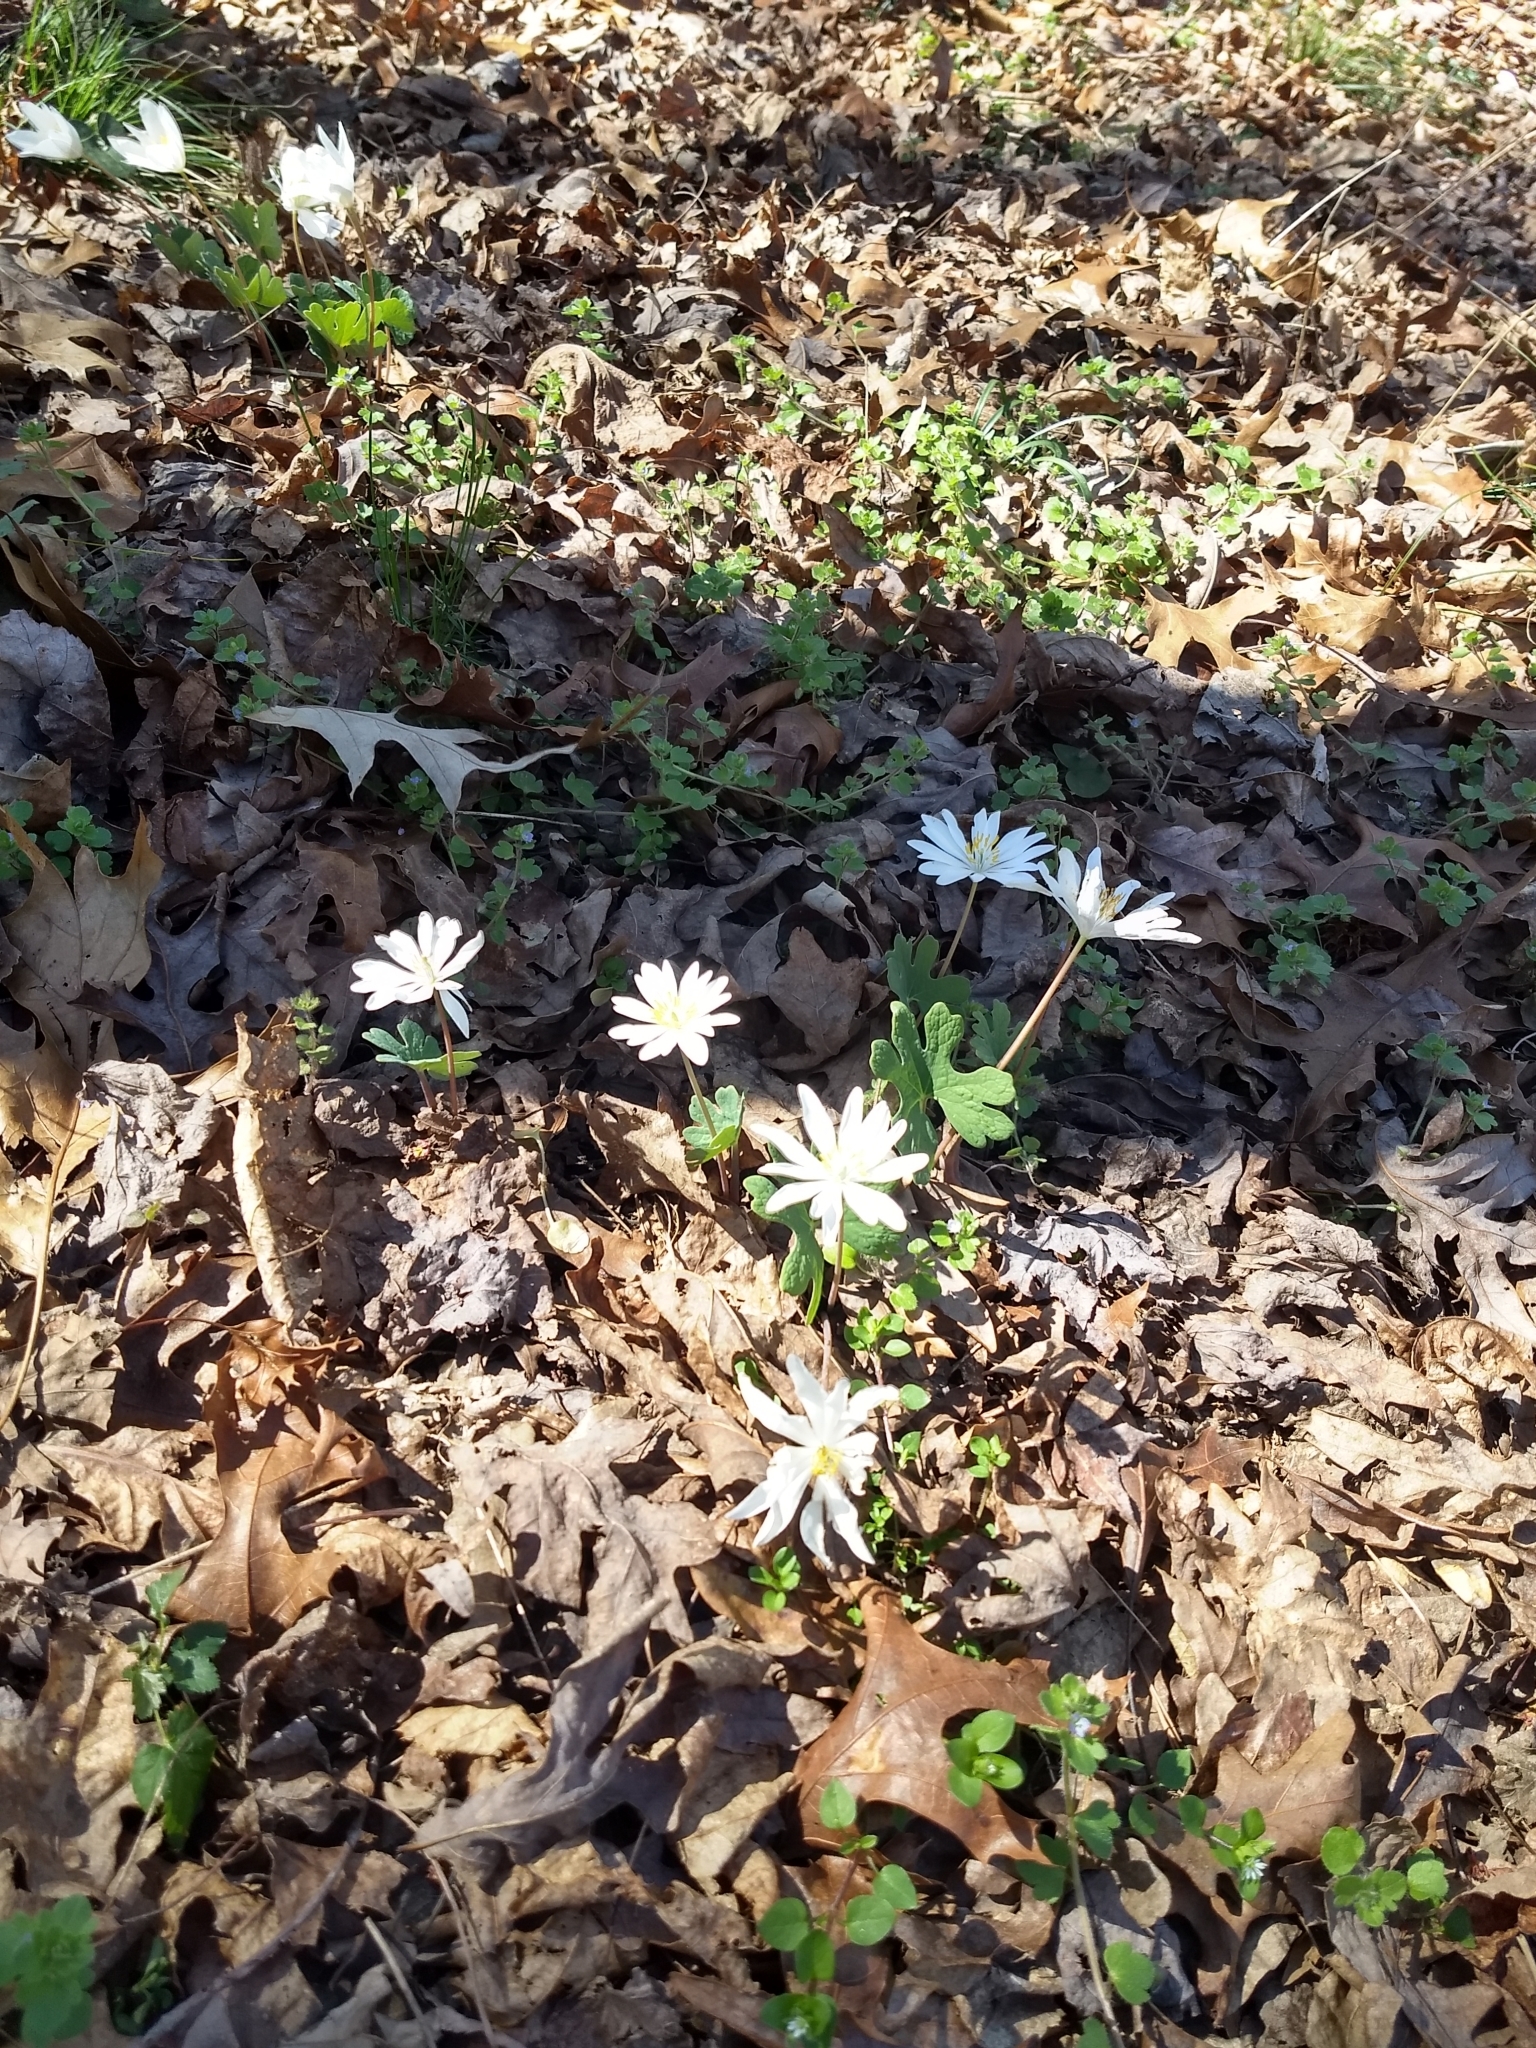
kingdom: Plantae
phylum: Tracheophyta
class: Magnoliopsida
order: Ranunculales
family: Papaveraceae
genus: Sanguinaria
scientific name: Sanguinaria canadensis
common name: Bloodroot
